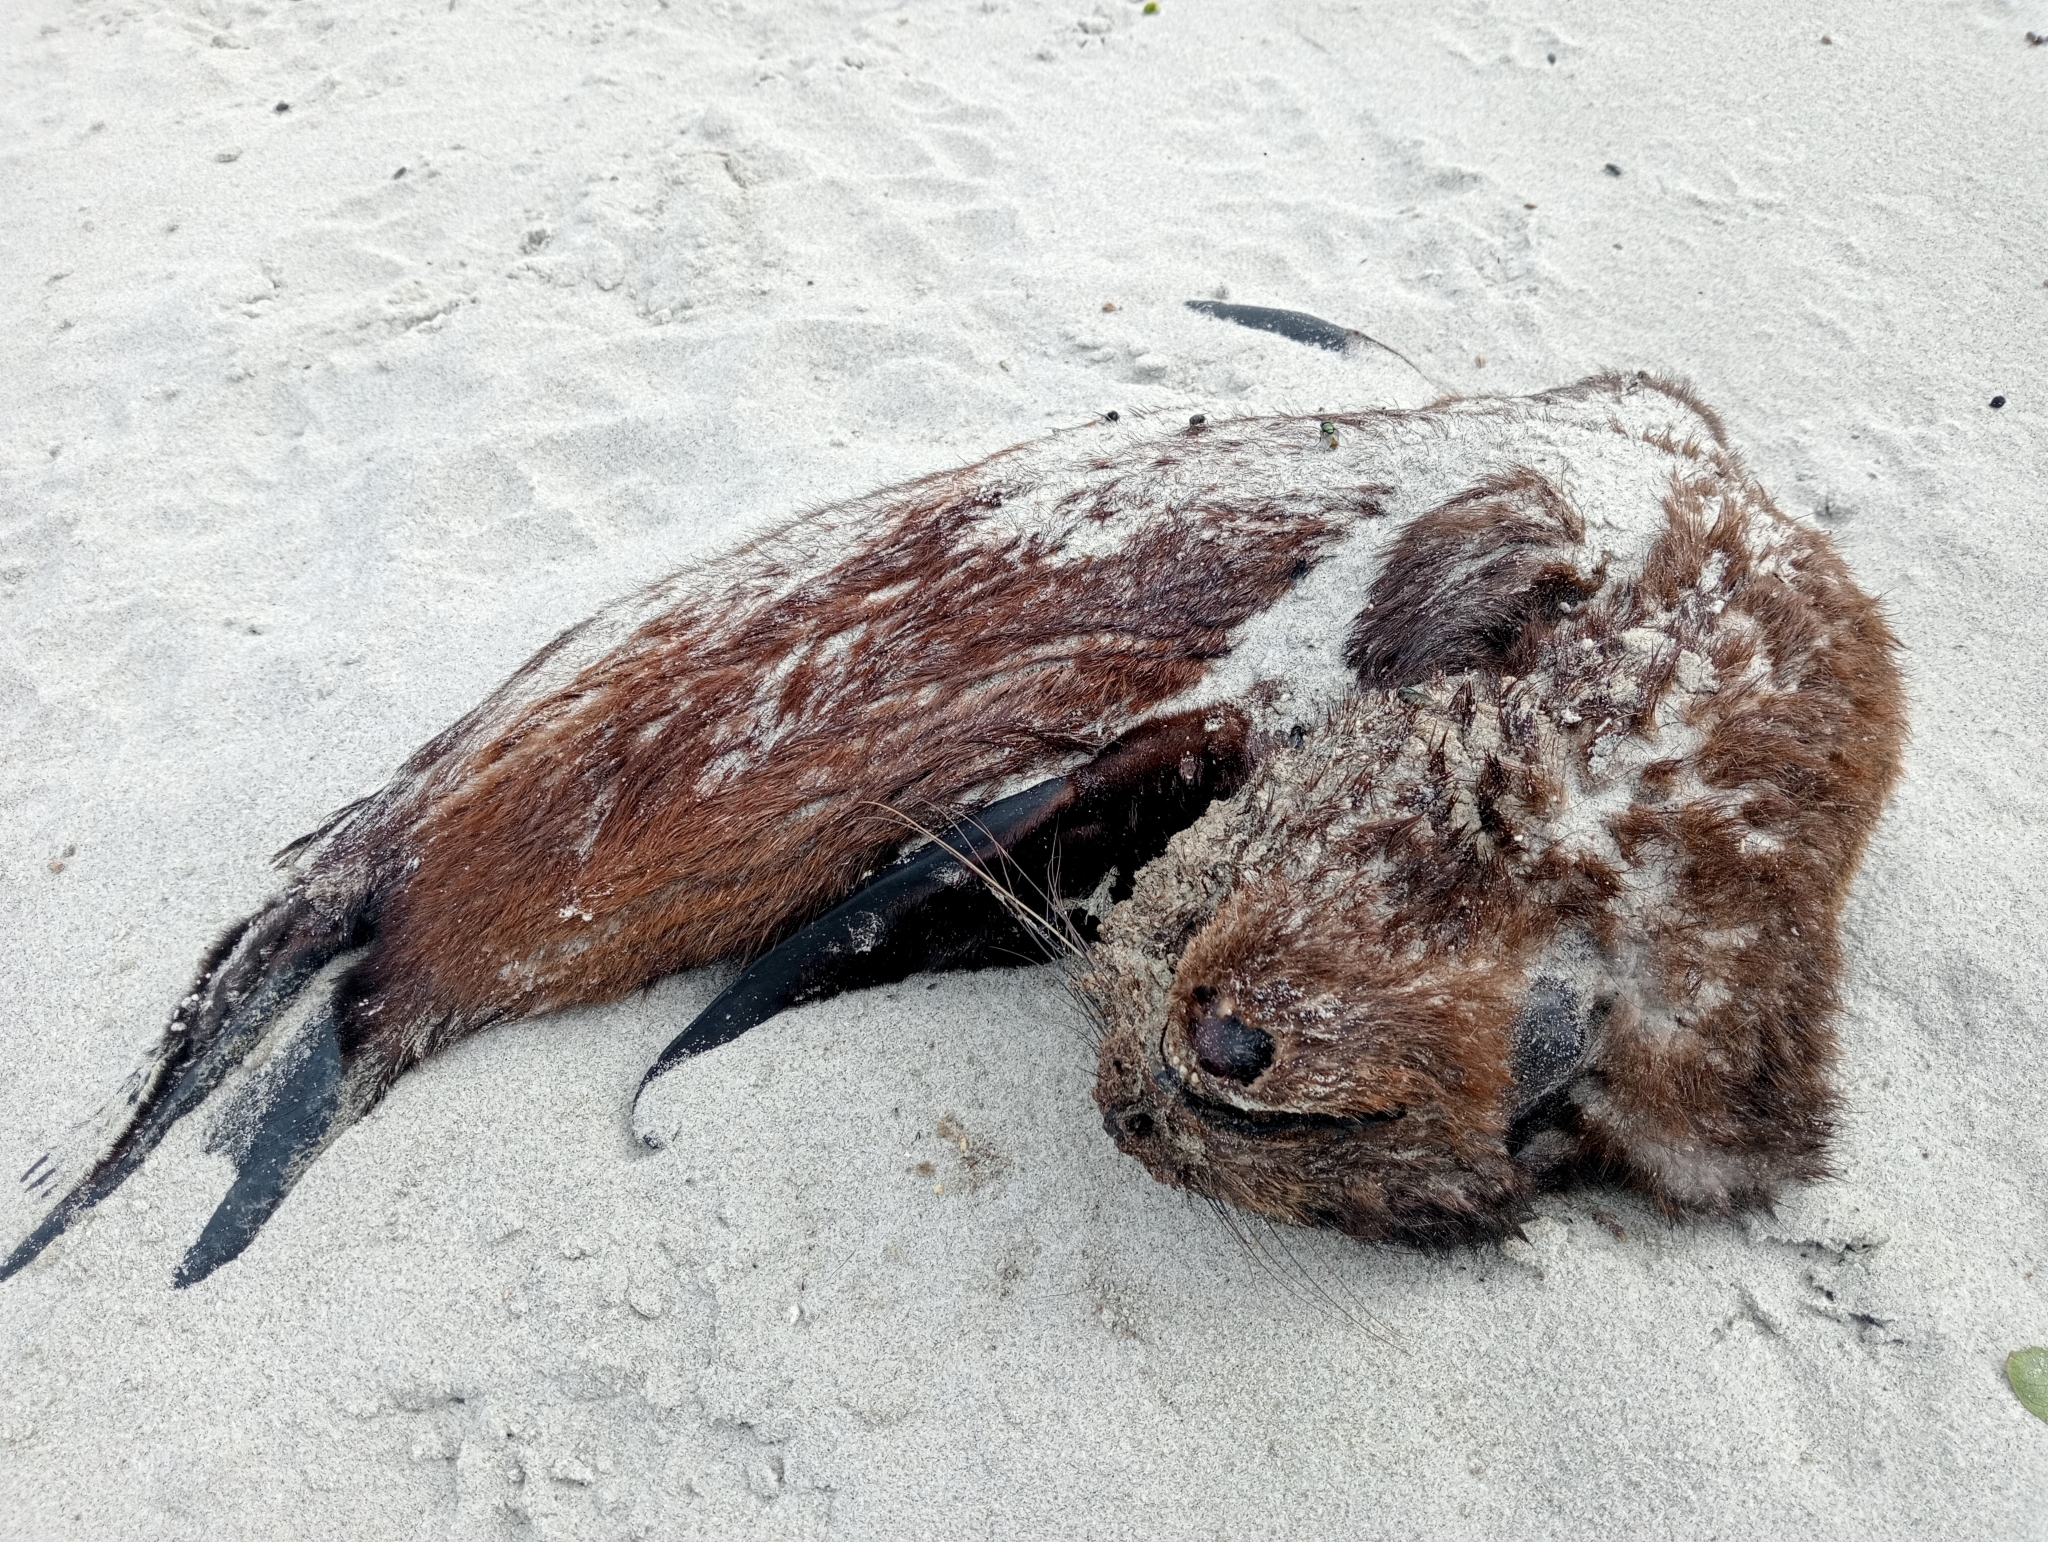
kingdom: Animalia
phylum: Chordata
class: Mammalia
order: Carnivora
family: Otariidae
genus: Arctocephalus
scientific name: Arctocephalus forsteri
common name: New zealand fur seal
